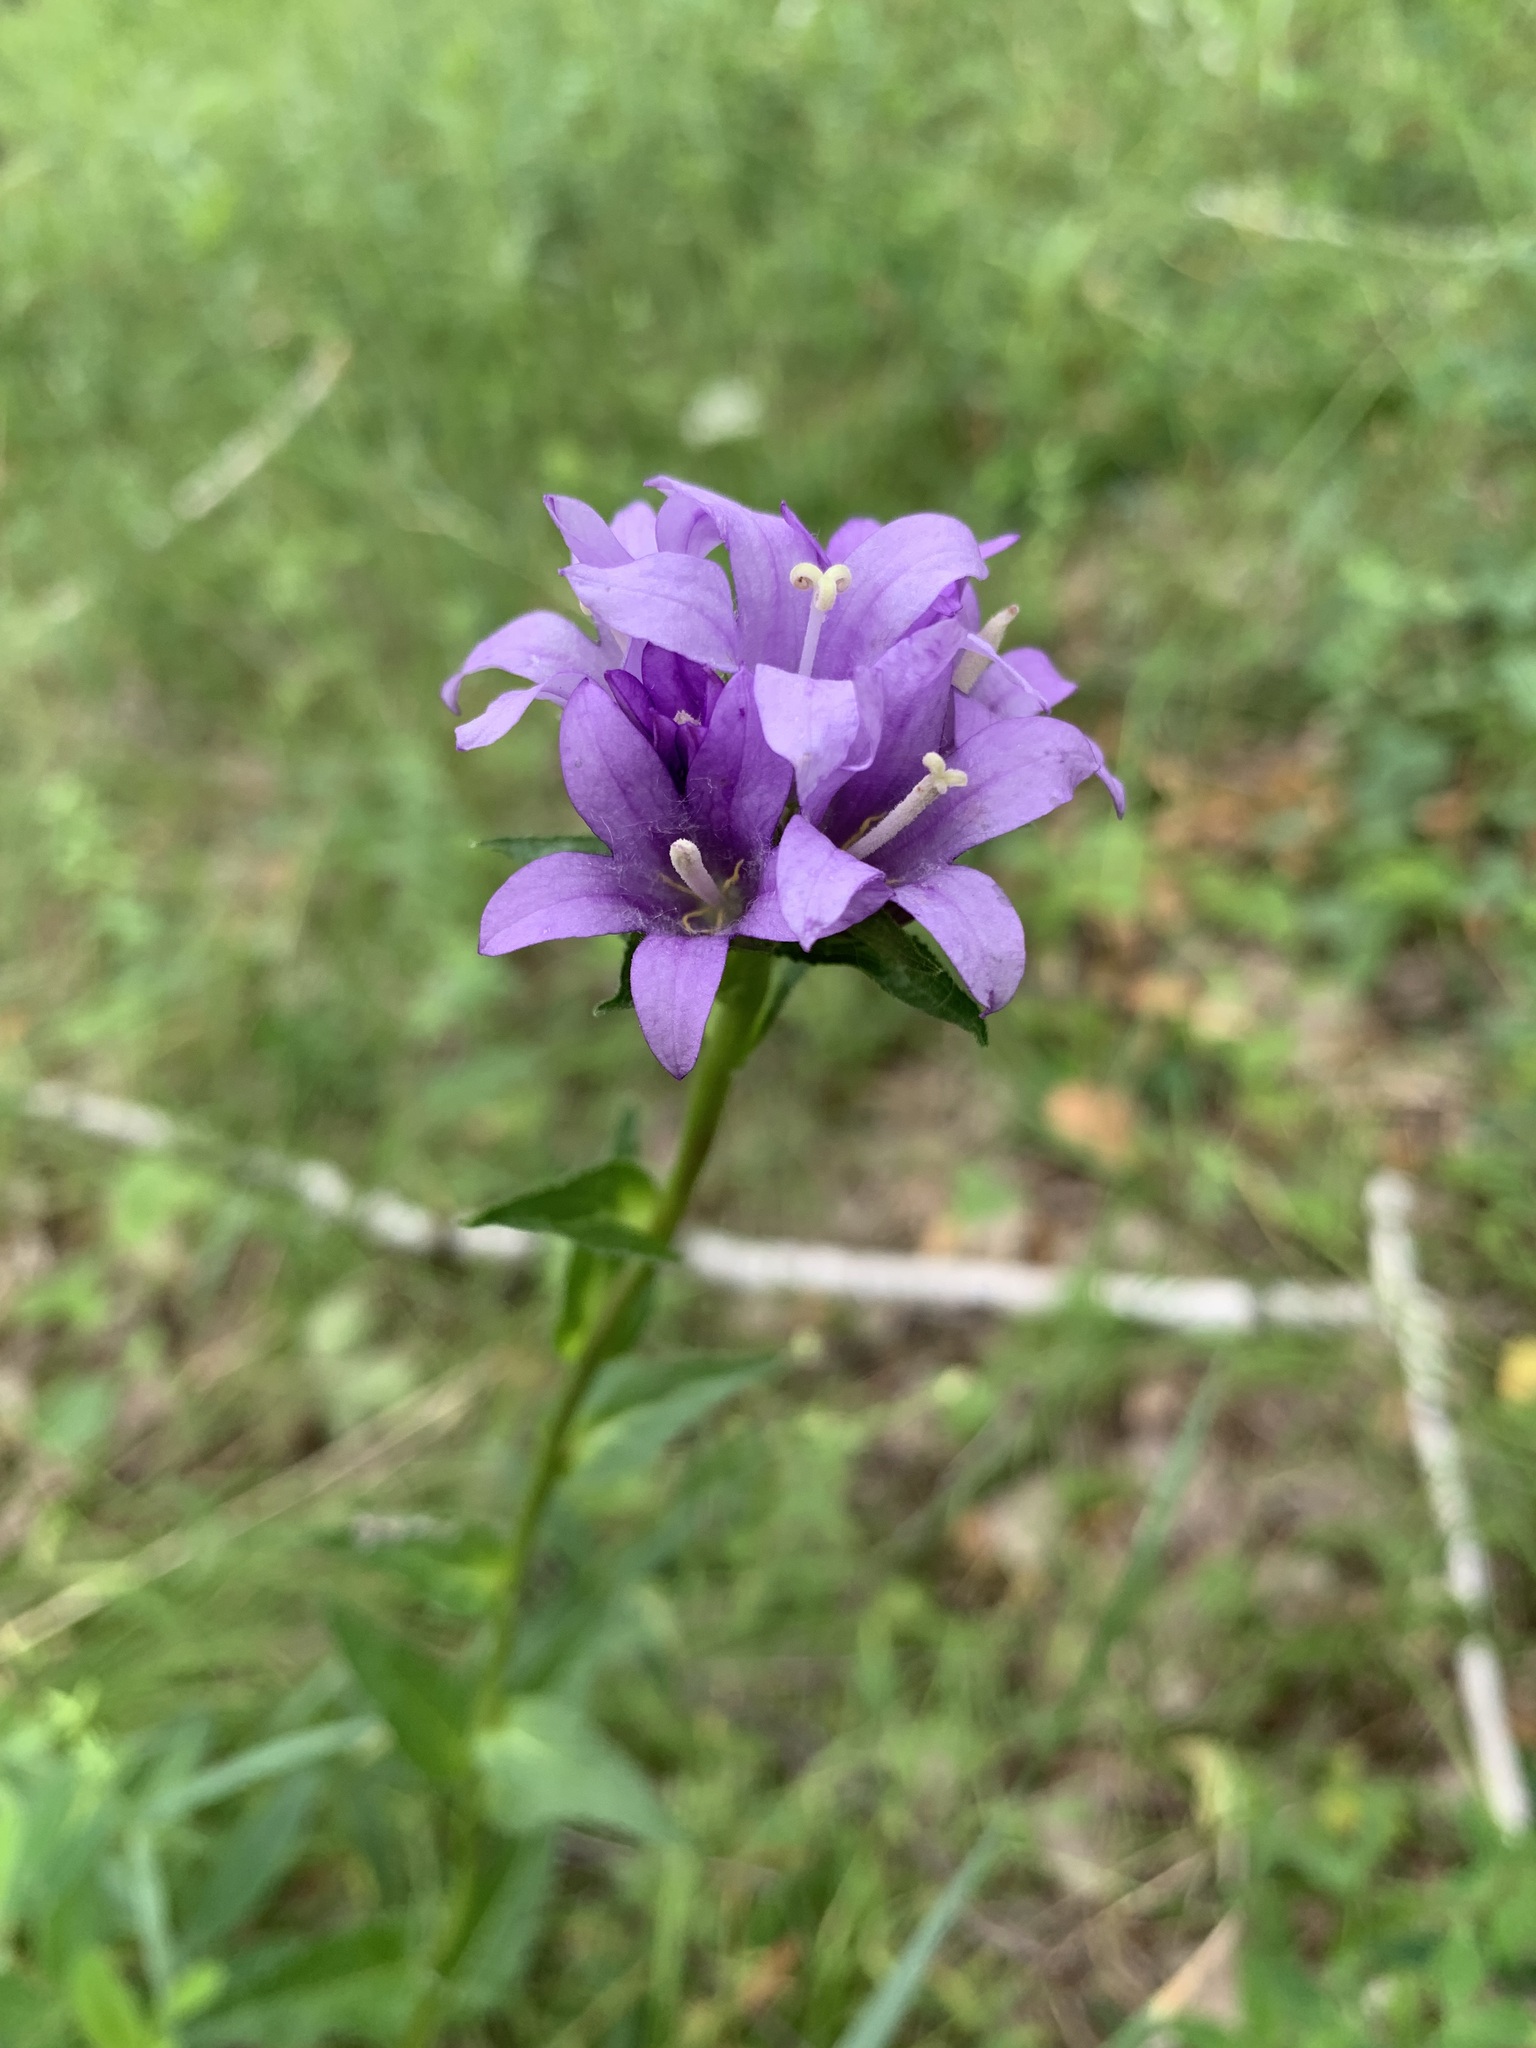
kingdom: Plantae
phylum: Tracheophyta
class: Magnoliopsida
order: Asterales
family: Campanulaceae
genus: Campanula
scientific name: Campanula glomerata
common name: Clustered bellflower
